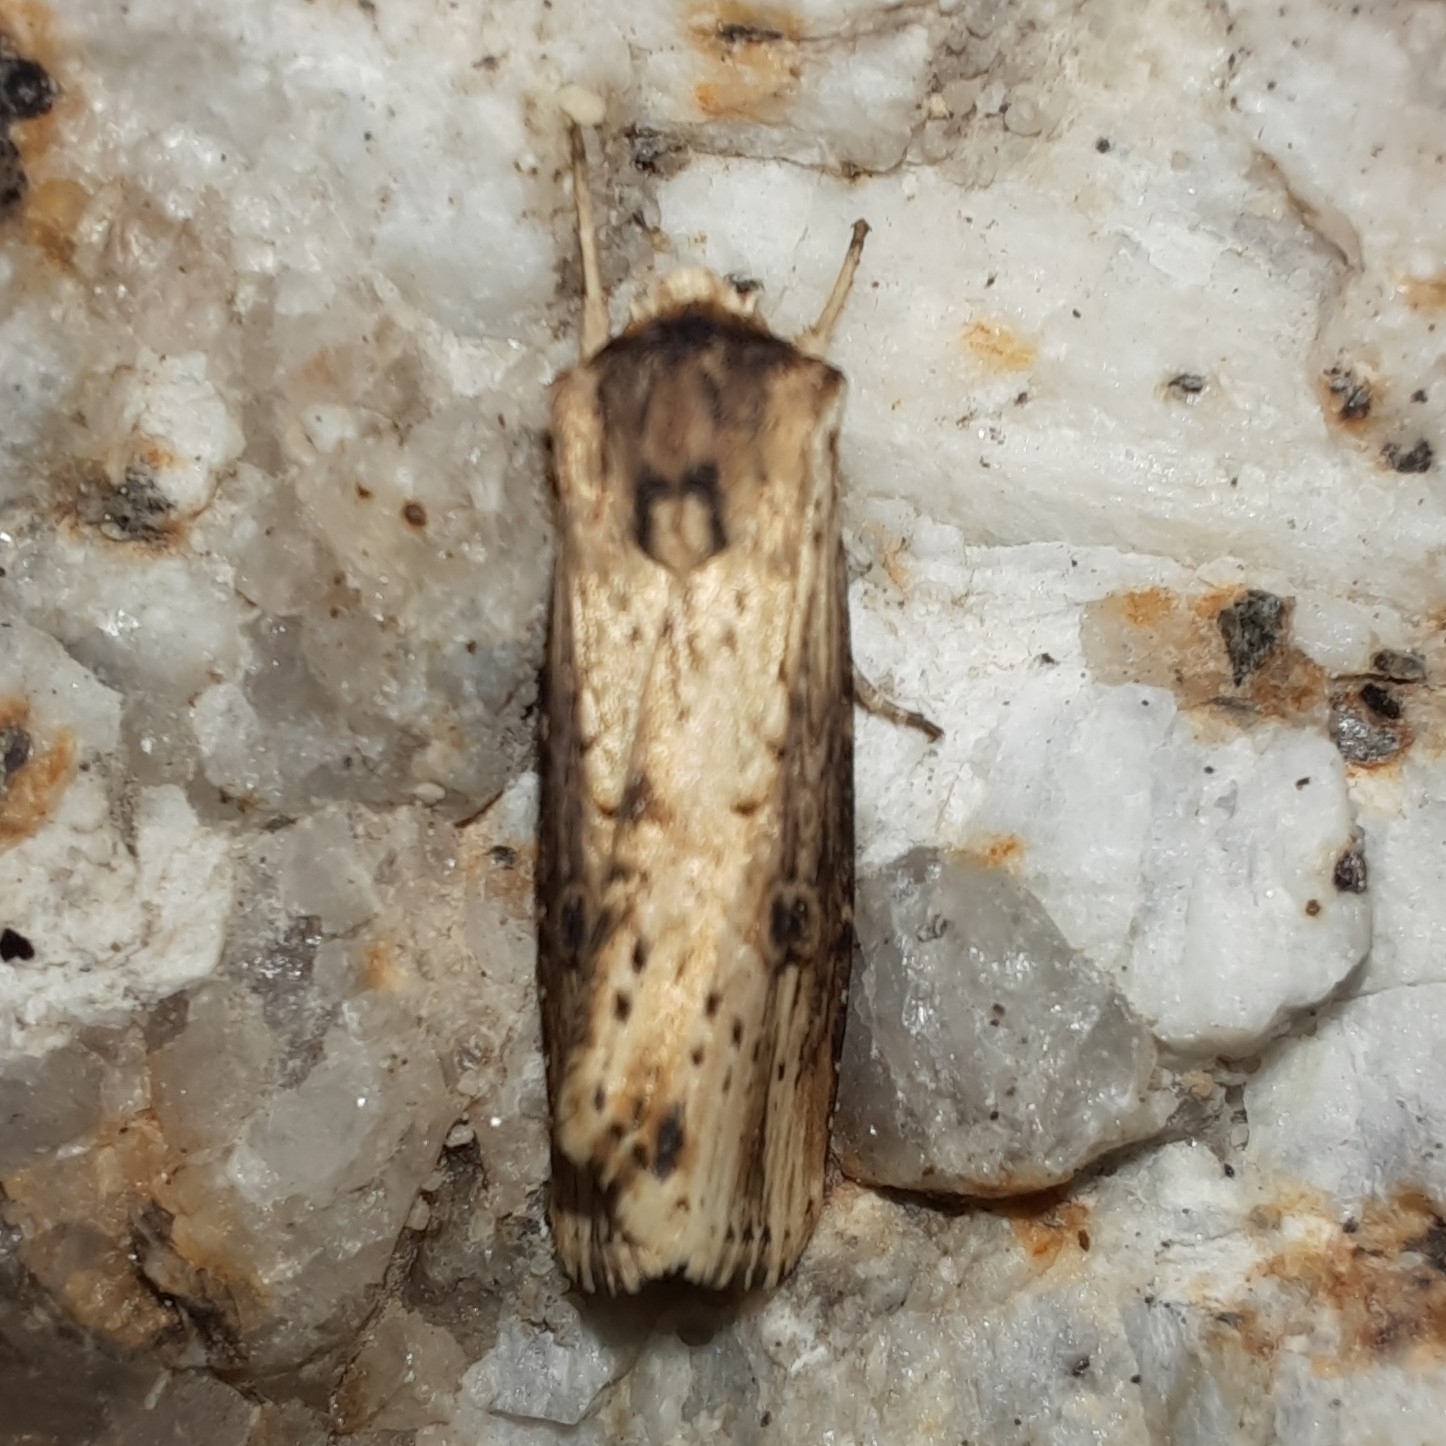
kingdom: Animalia
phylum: Arthropoda
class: Insecta
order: Lepidoptera
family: Noctuidae
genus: Axylia
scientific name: Axylia putris
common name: Flame
